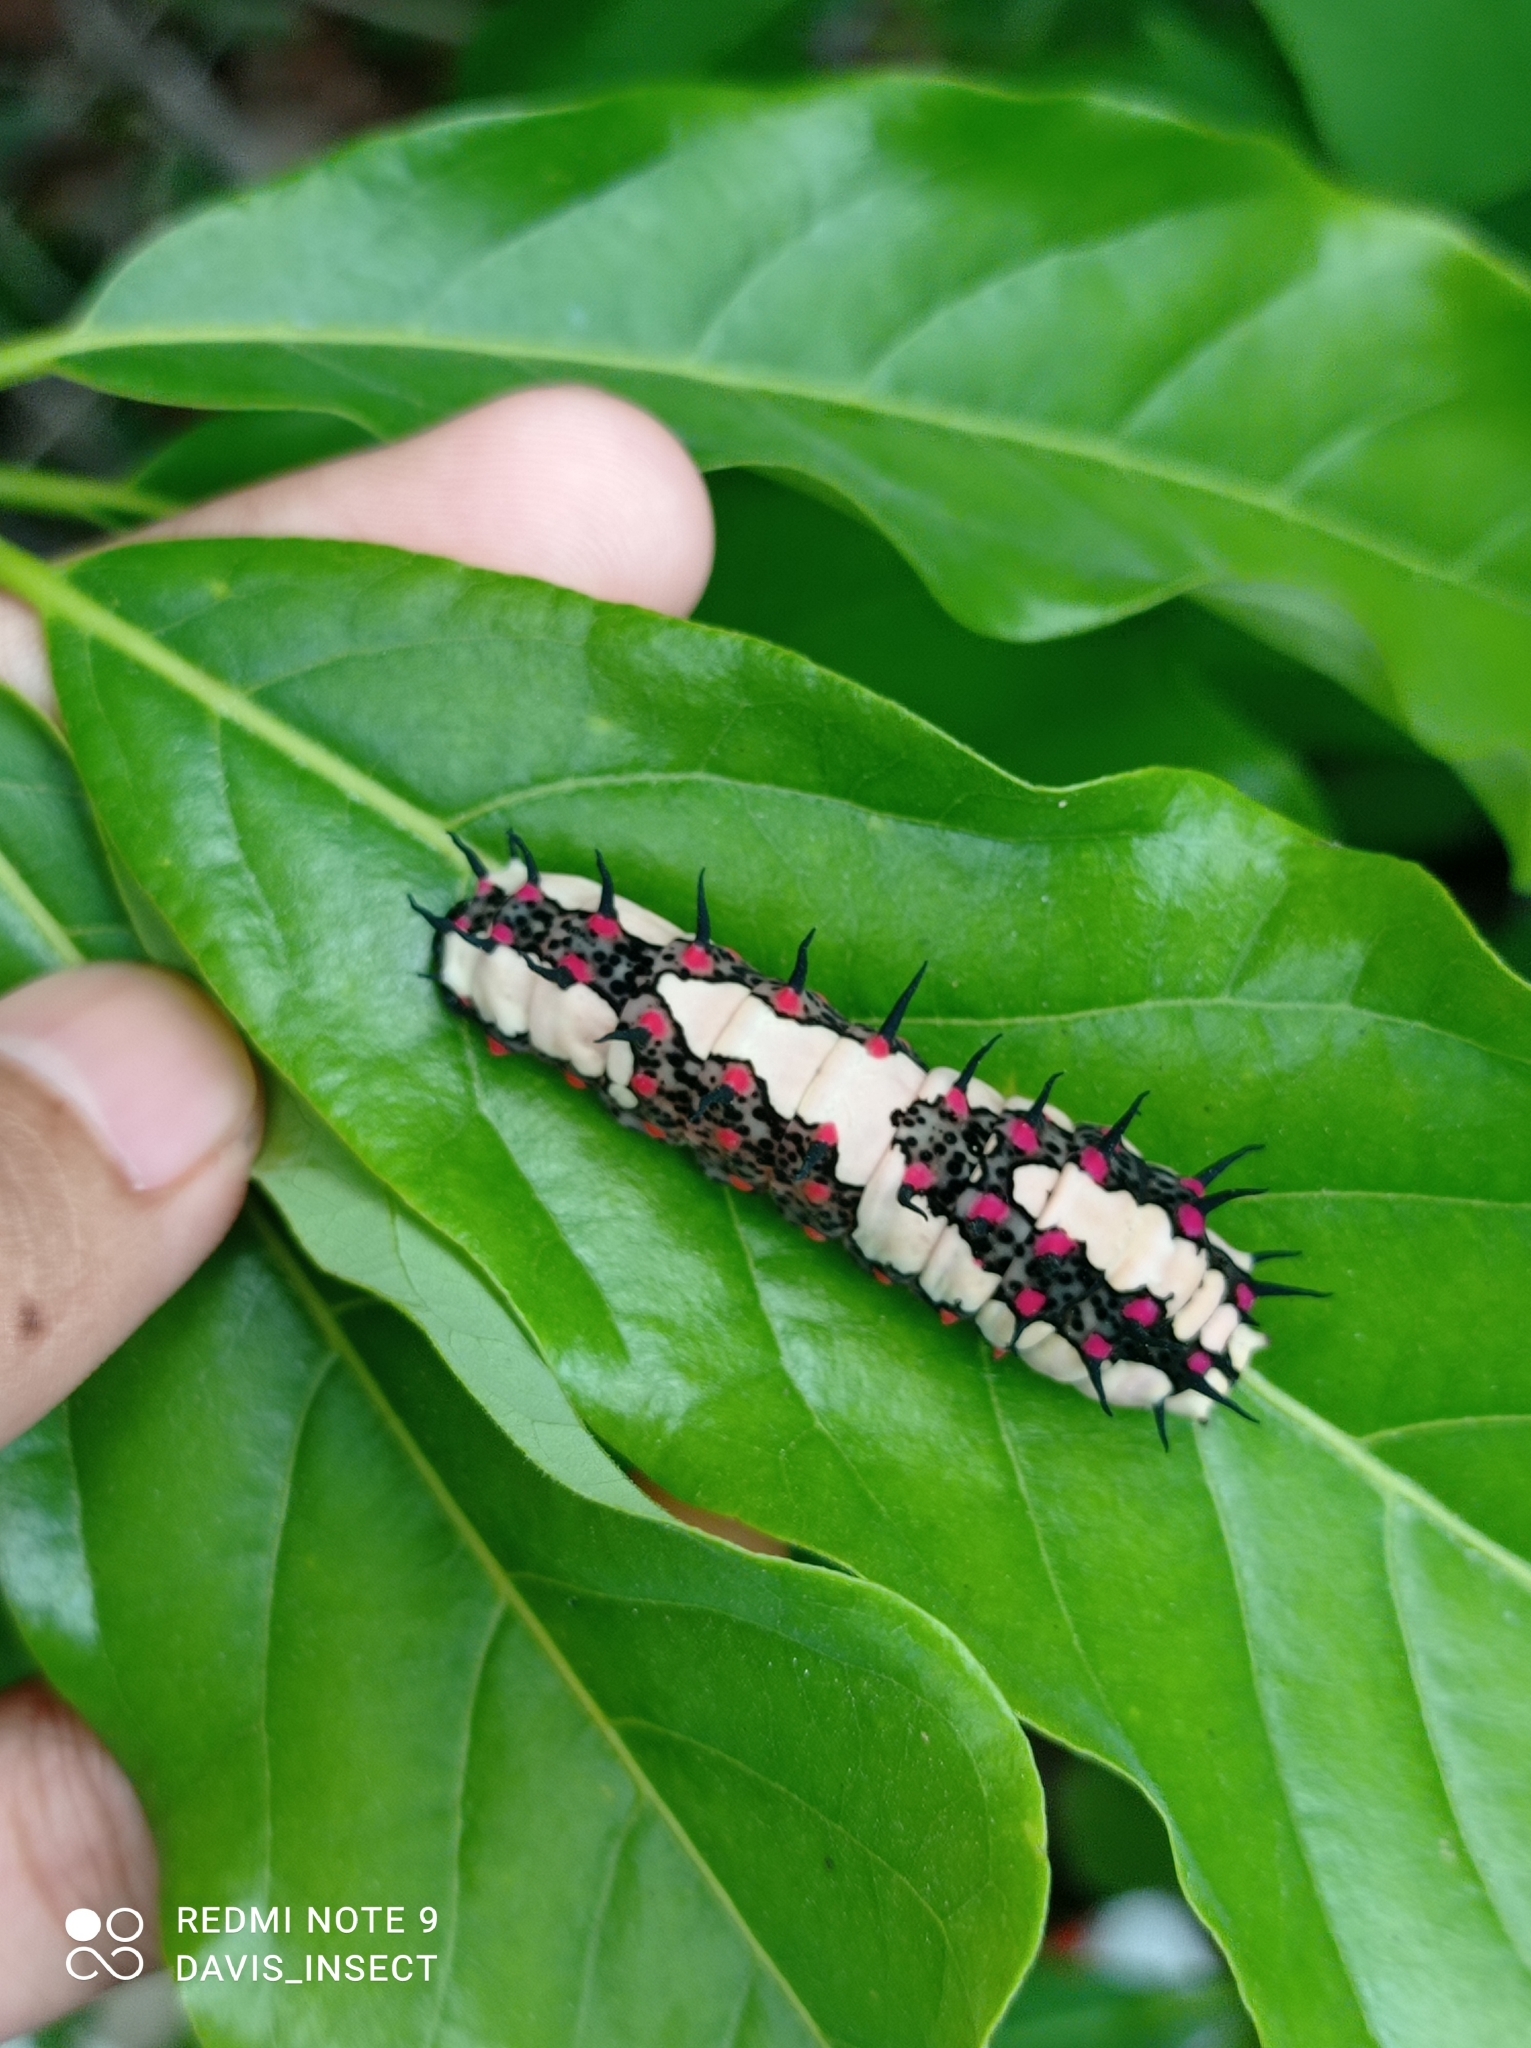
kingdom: Animalia
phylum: Arthropoda
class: Insecta
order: Lepidoptera
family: Papilionidae
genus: Chilasa
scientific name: Chilasa clytia
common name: Common mime
